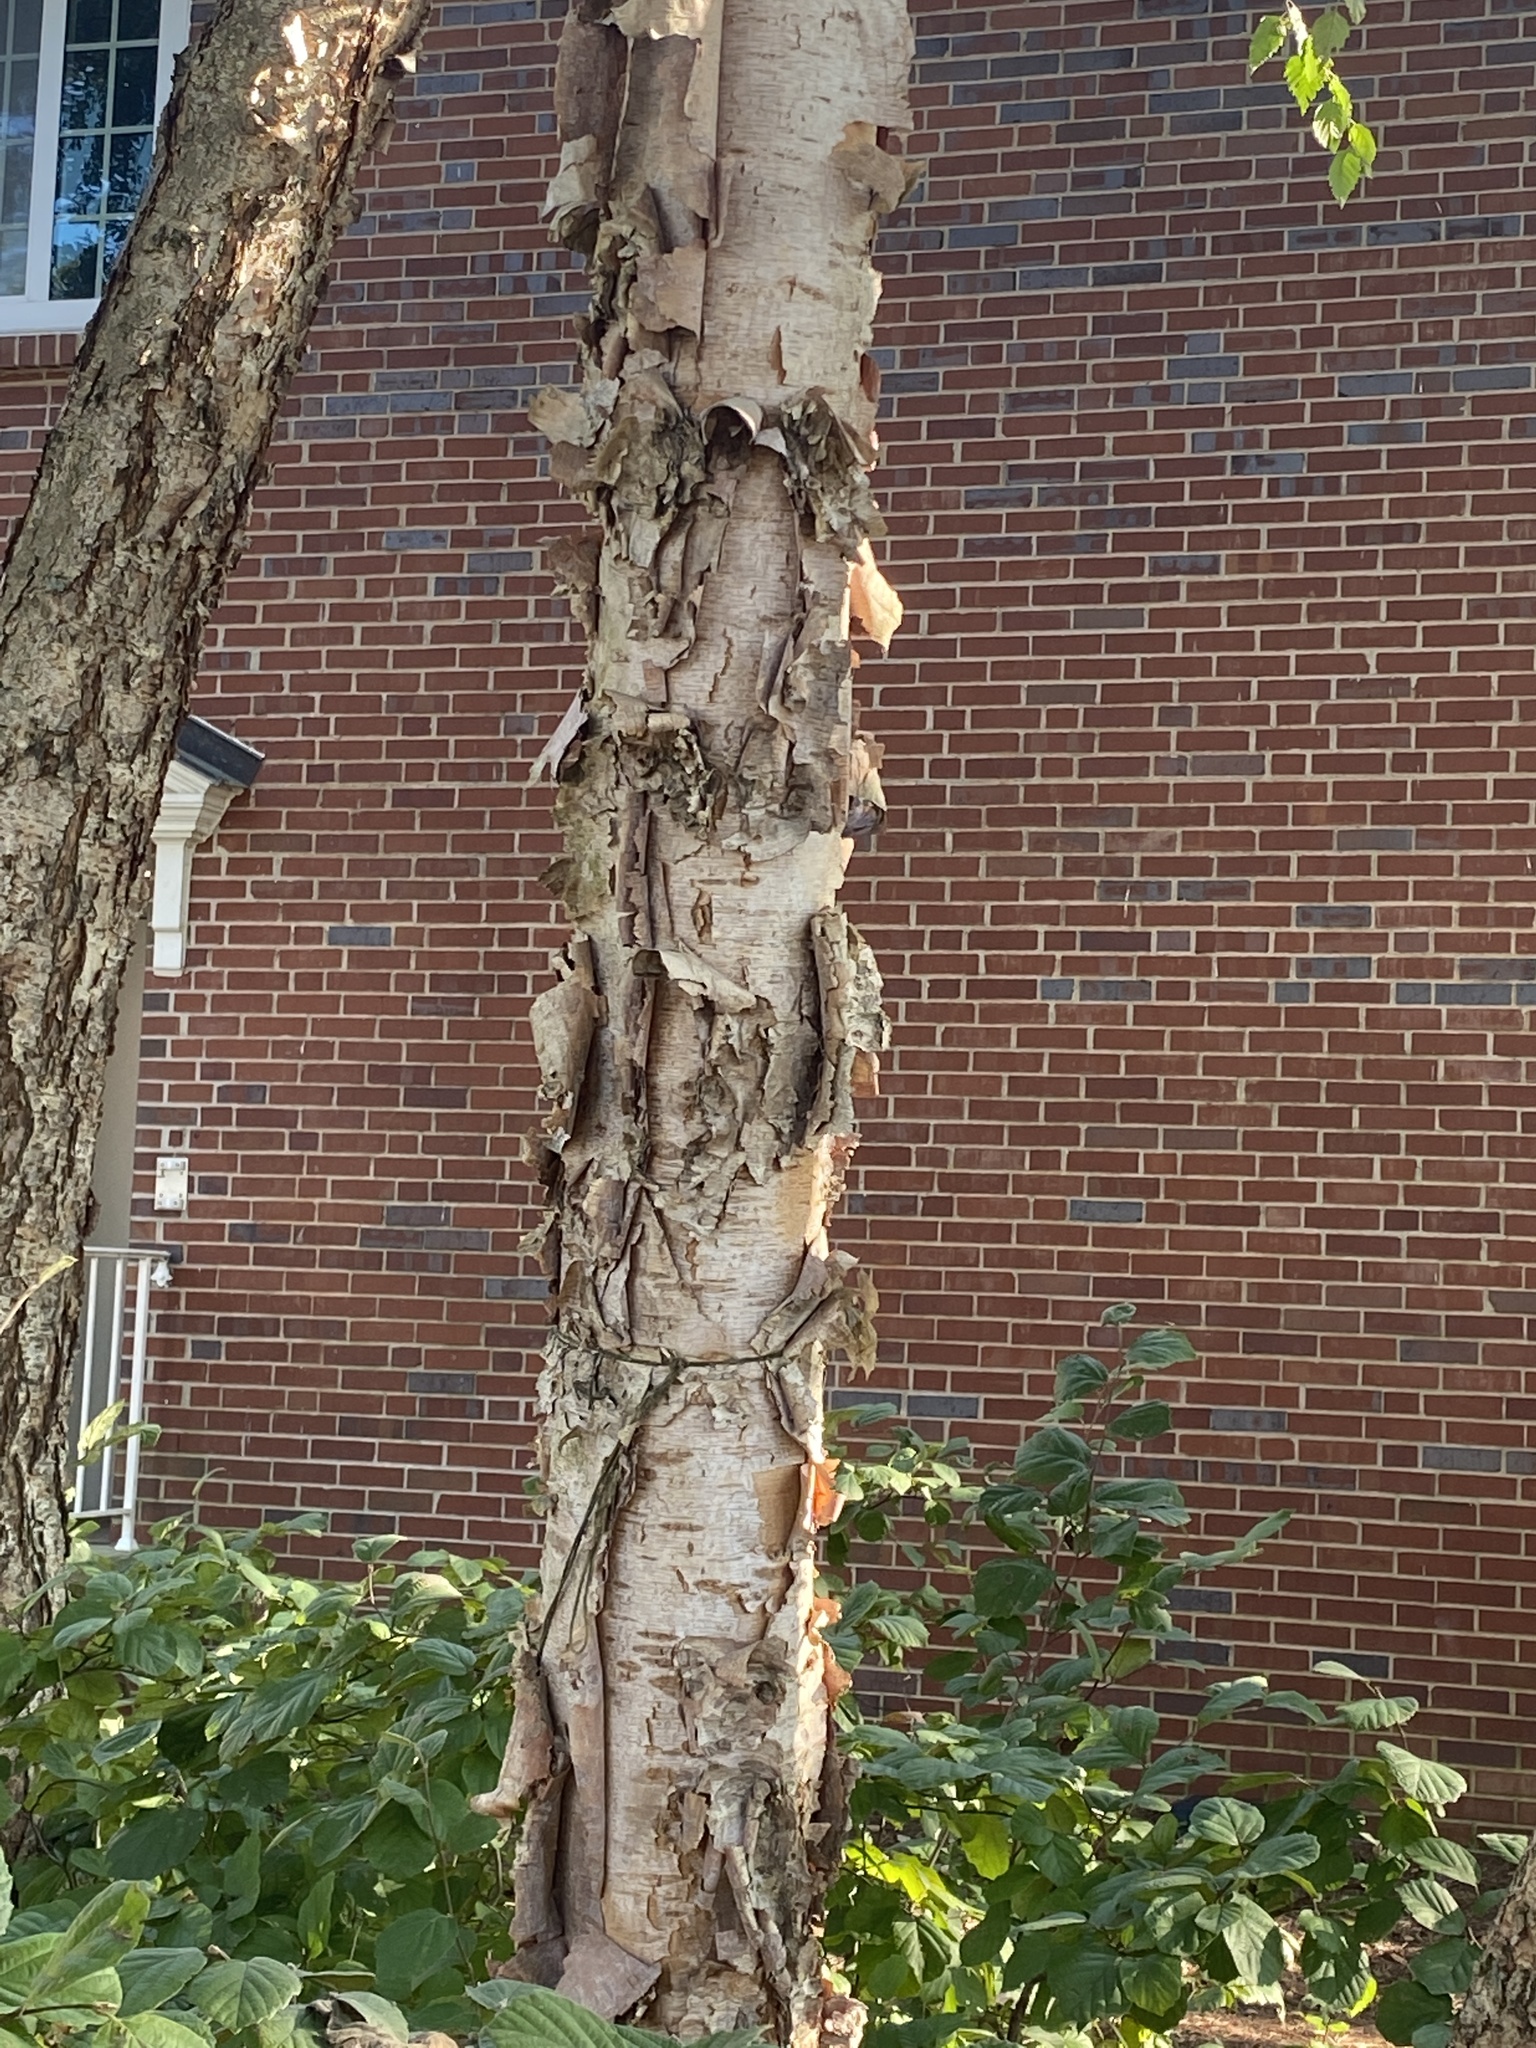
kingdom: Plantae
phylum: Tracheophyta
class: Magnoliopsida
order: Fagales
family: Betulaceae
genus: Betula
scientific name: Betula nigra
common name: Black birch
